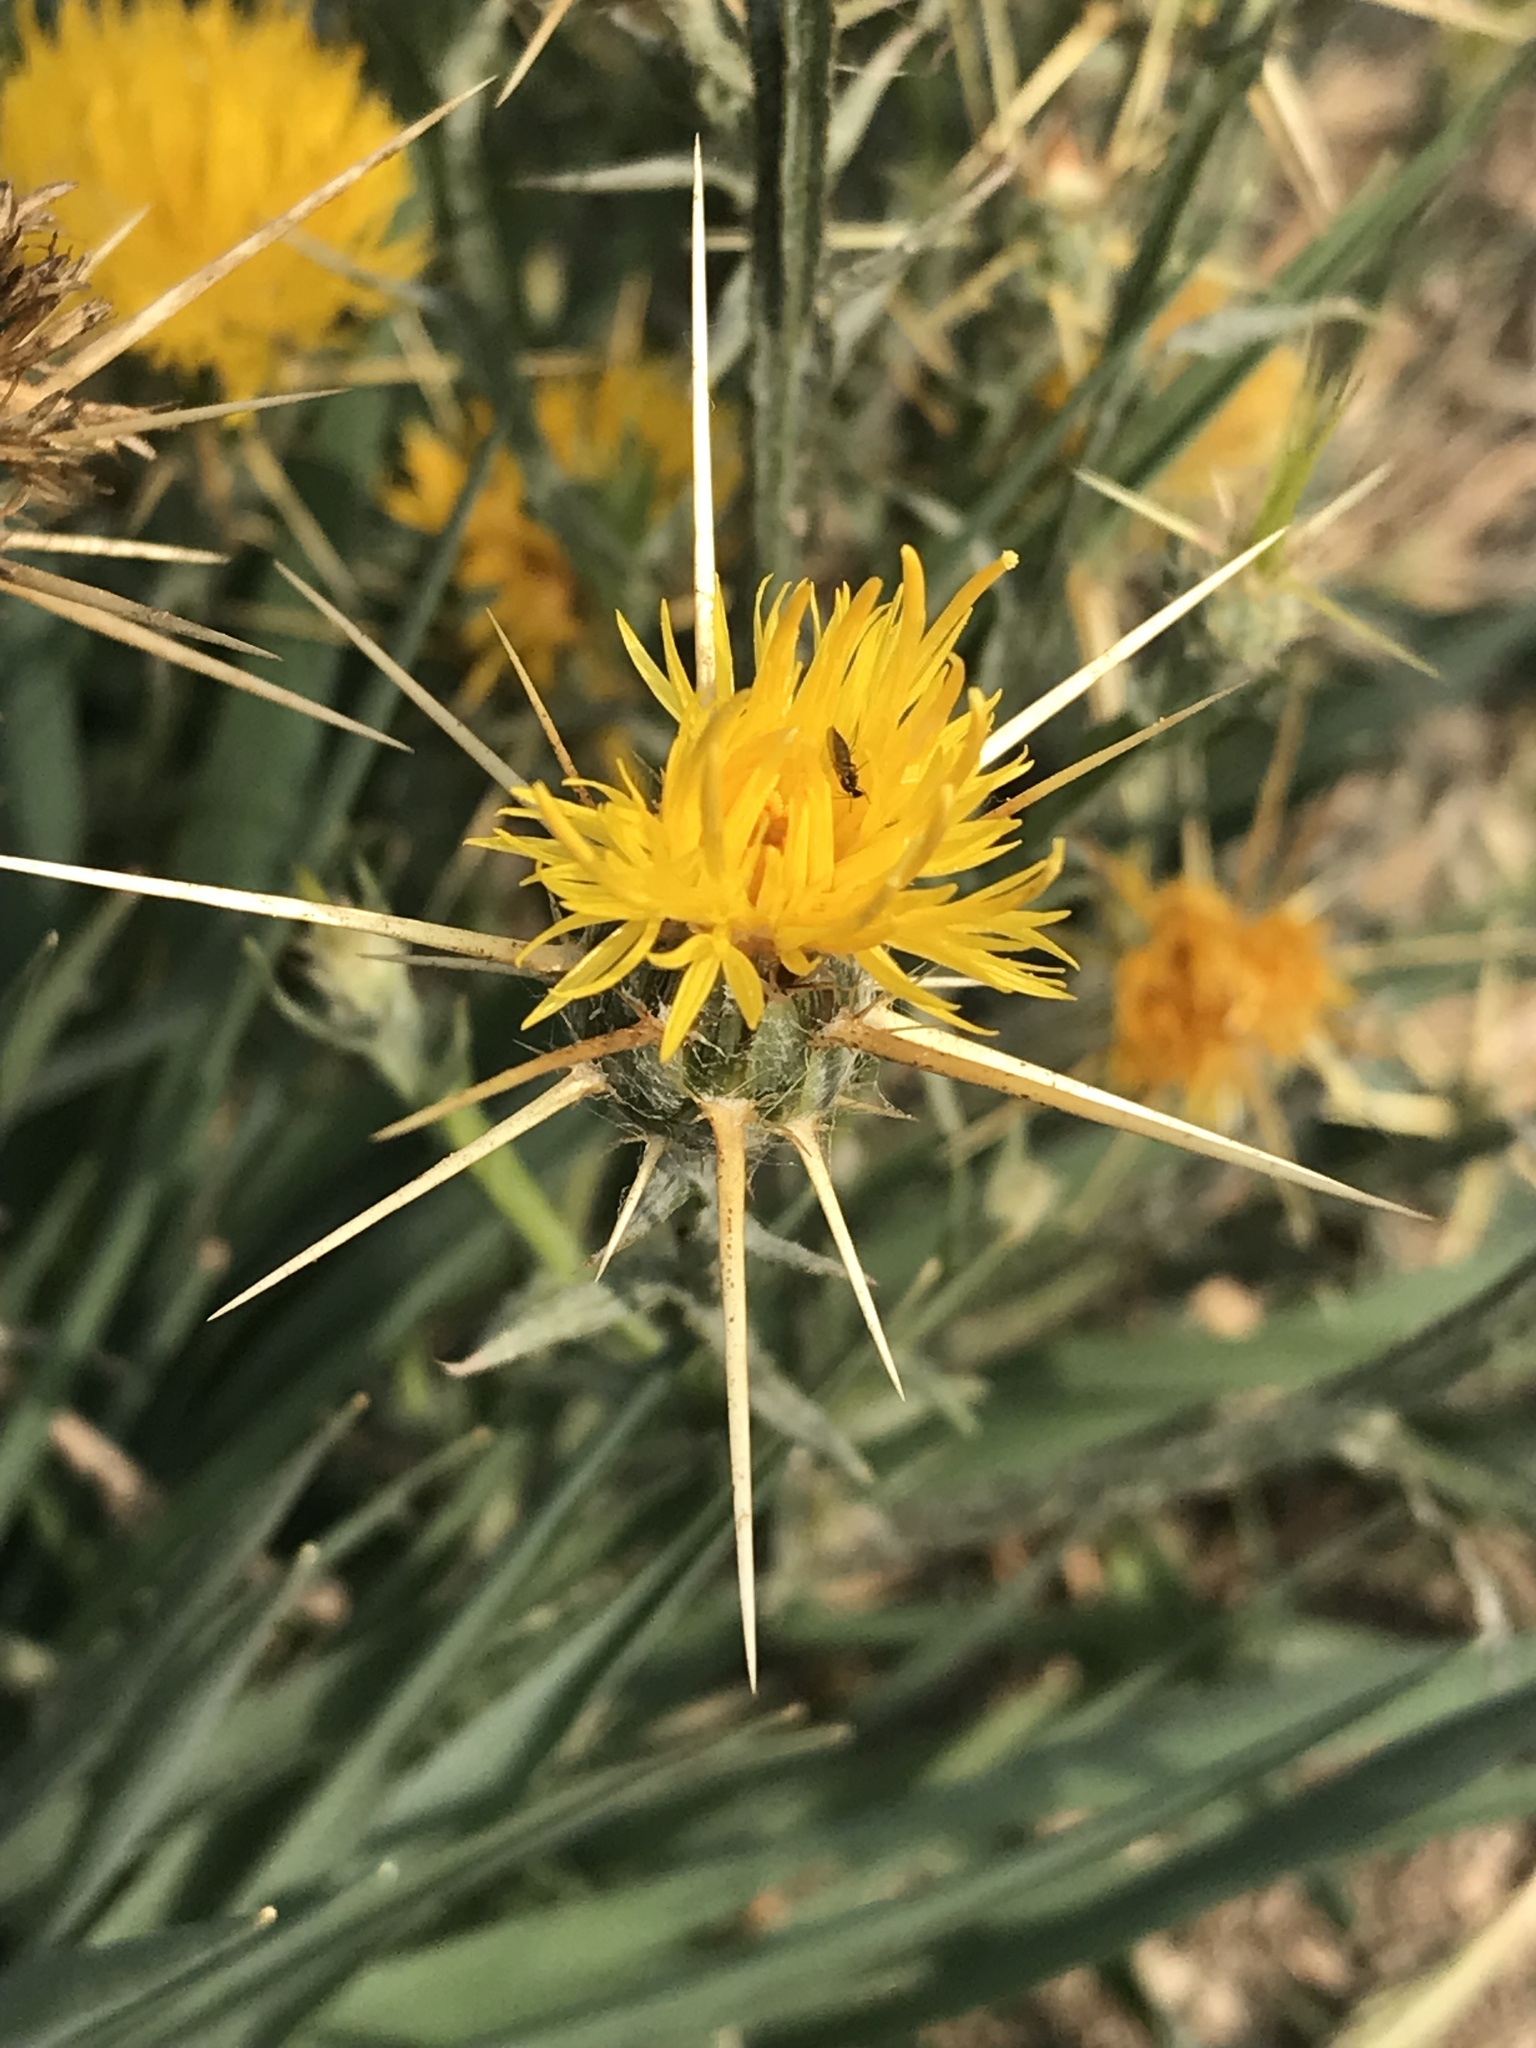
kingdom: Plantae
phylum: Tracheophyta
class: Magnoliopsida
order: Asterales
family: Asteraceae
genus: Centaurea
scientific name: Centaurea solstitialis
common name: Yellow star-thistle
